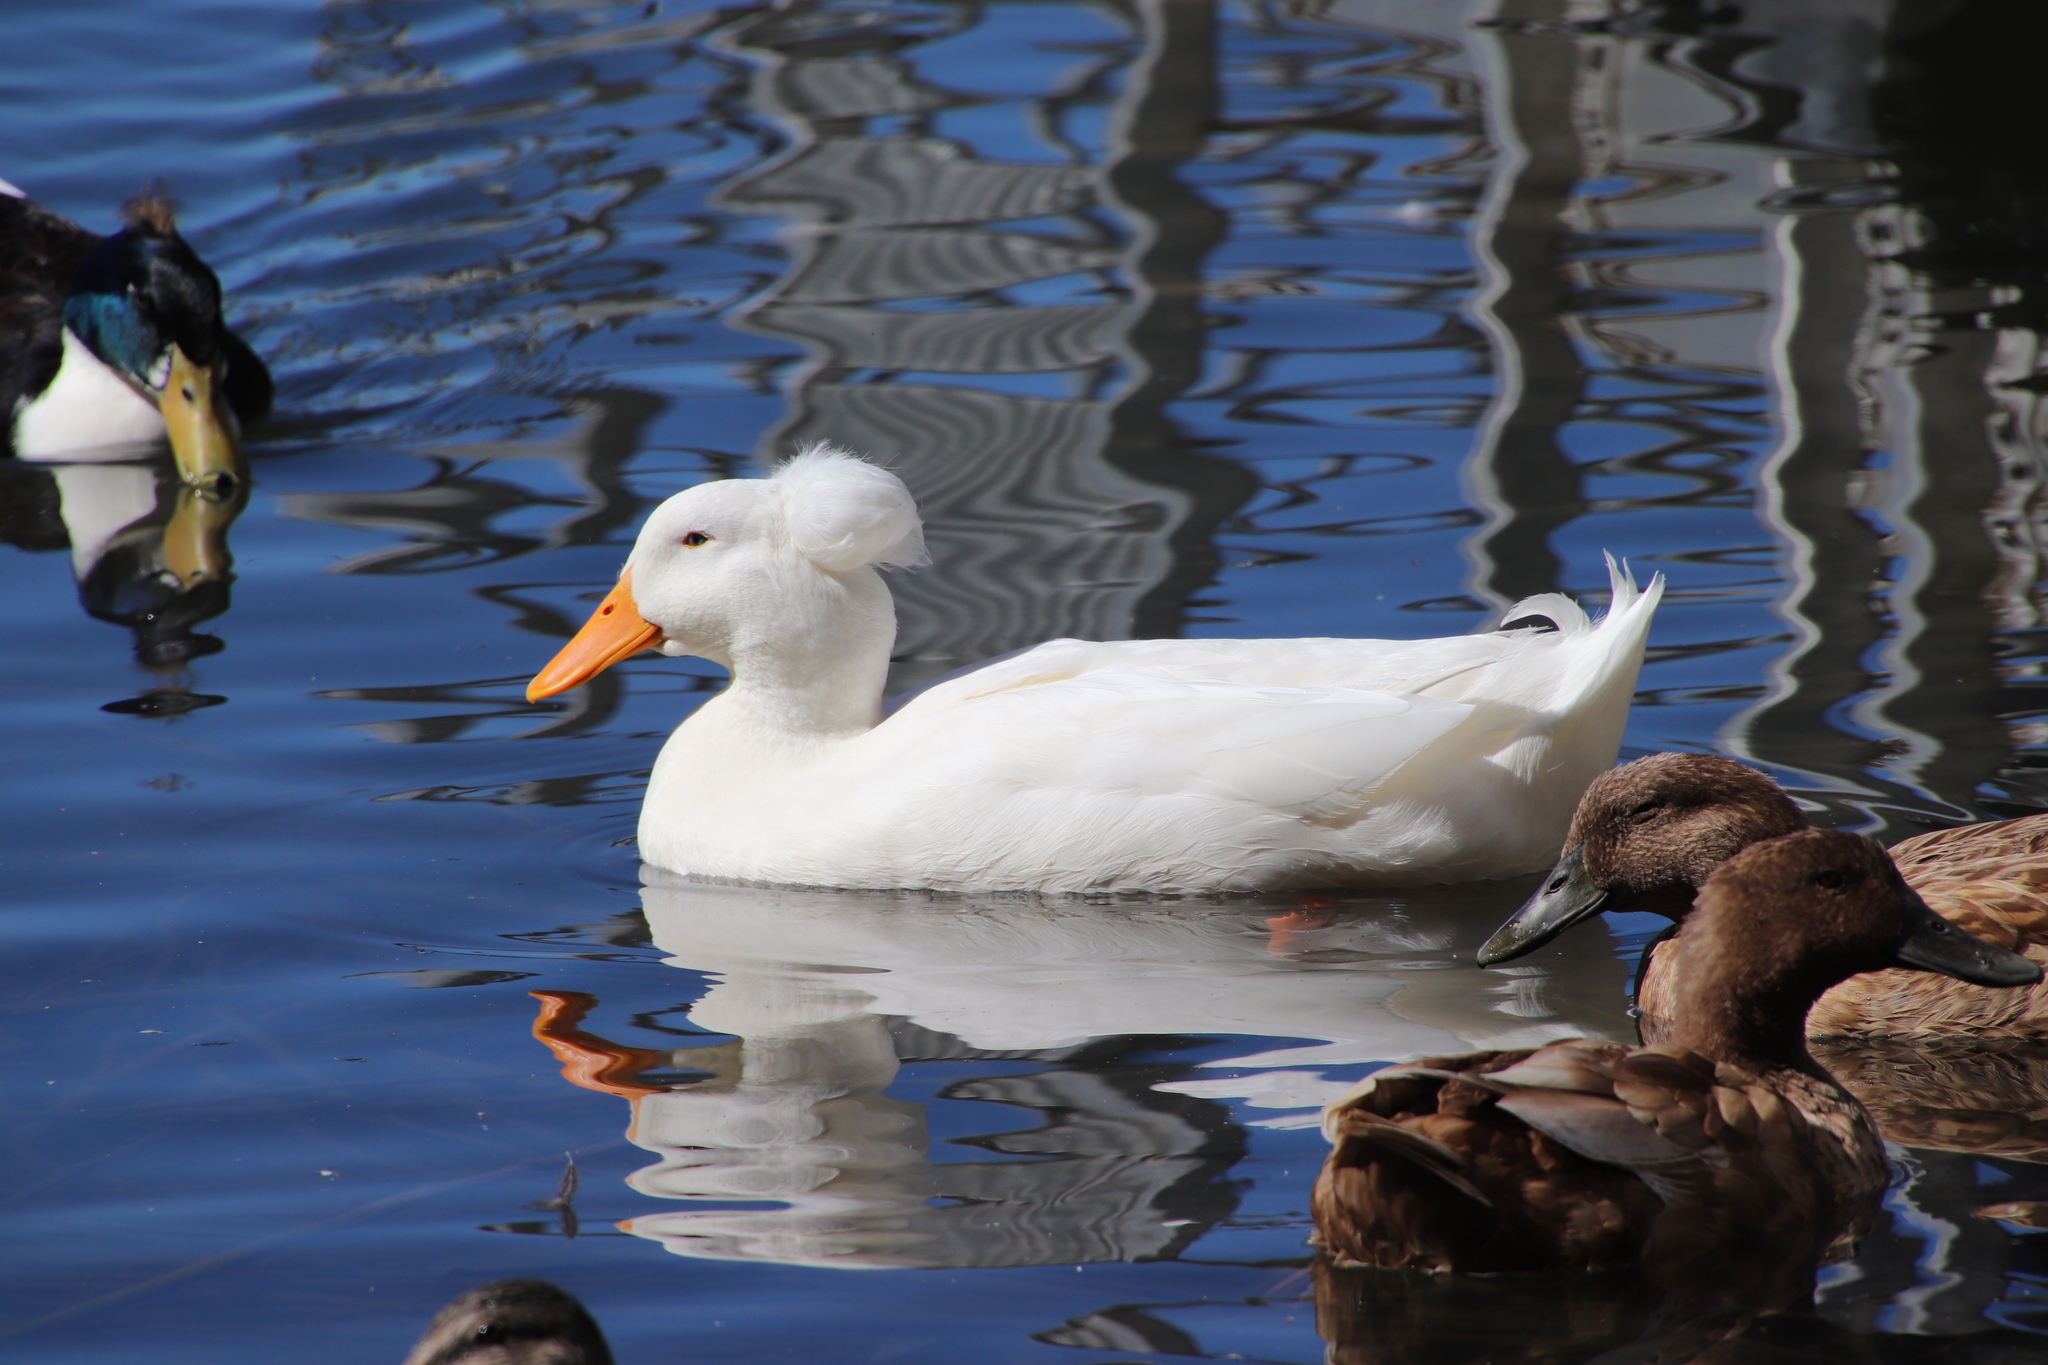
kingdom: Animalia
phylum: Chordata
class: Aves
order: Anseriformes
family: Anatidae
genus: Anas
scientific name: Anas platyrhynchos
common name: Mallard
